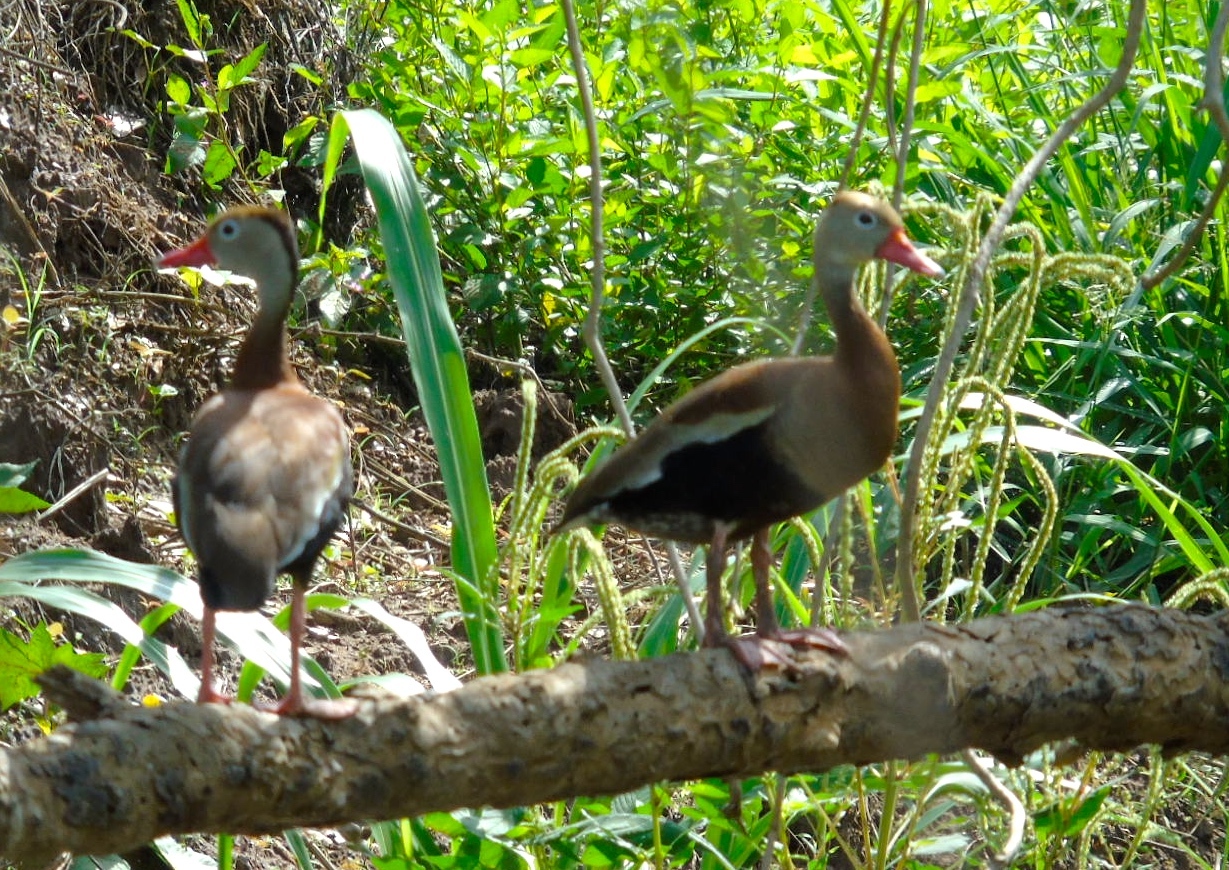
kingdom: Animalia
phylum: Chordata
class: Aves
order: Anseriformes
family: Anatidae
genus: Dendrocygna
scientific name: Dendrocygna autumnalis
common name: Black-bellied whistling duck
